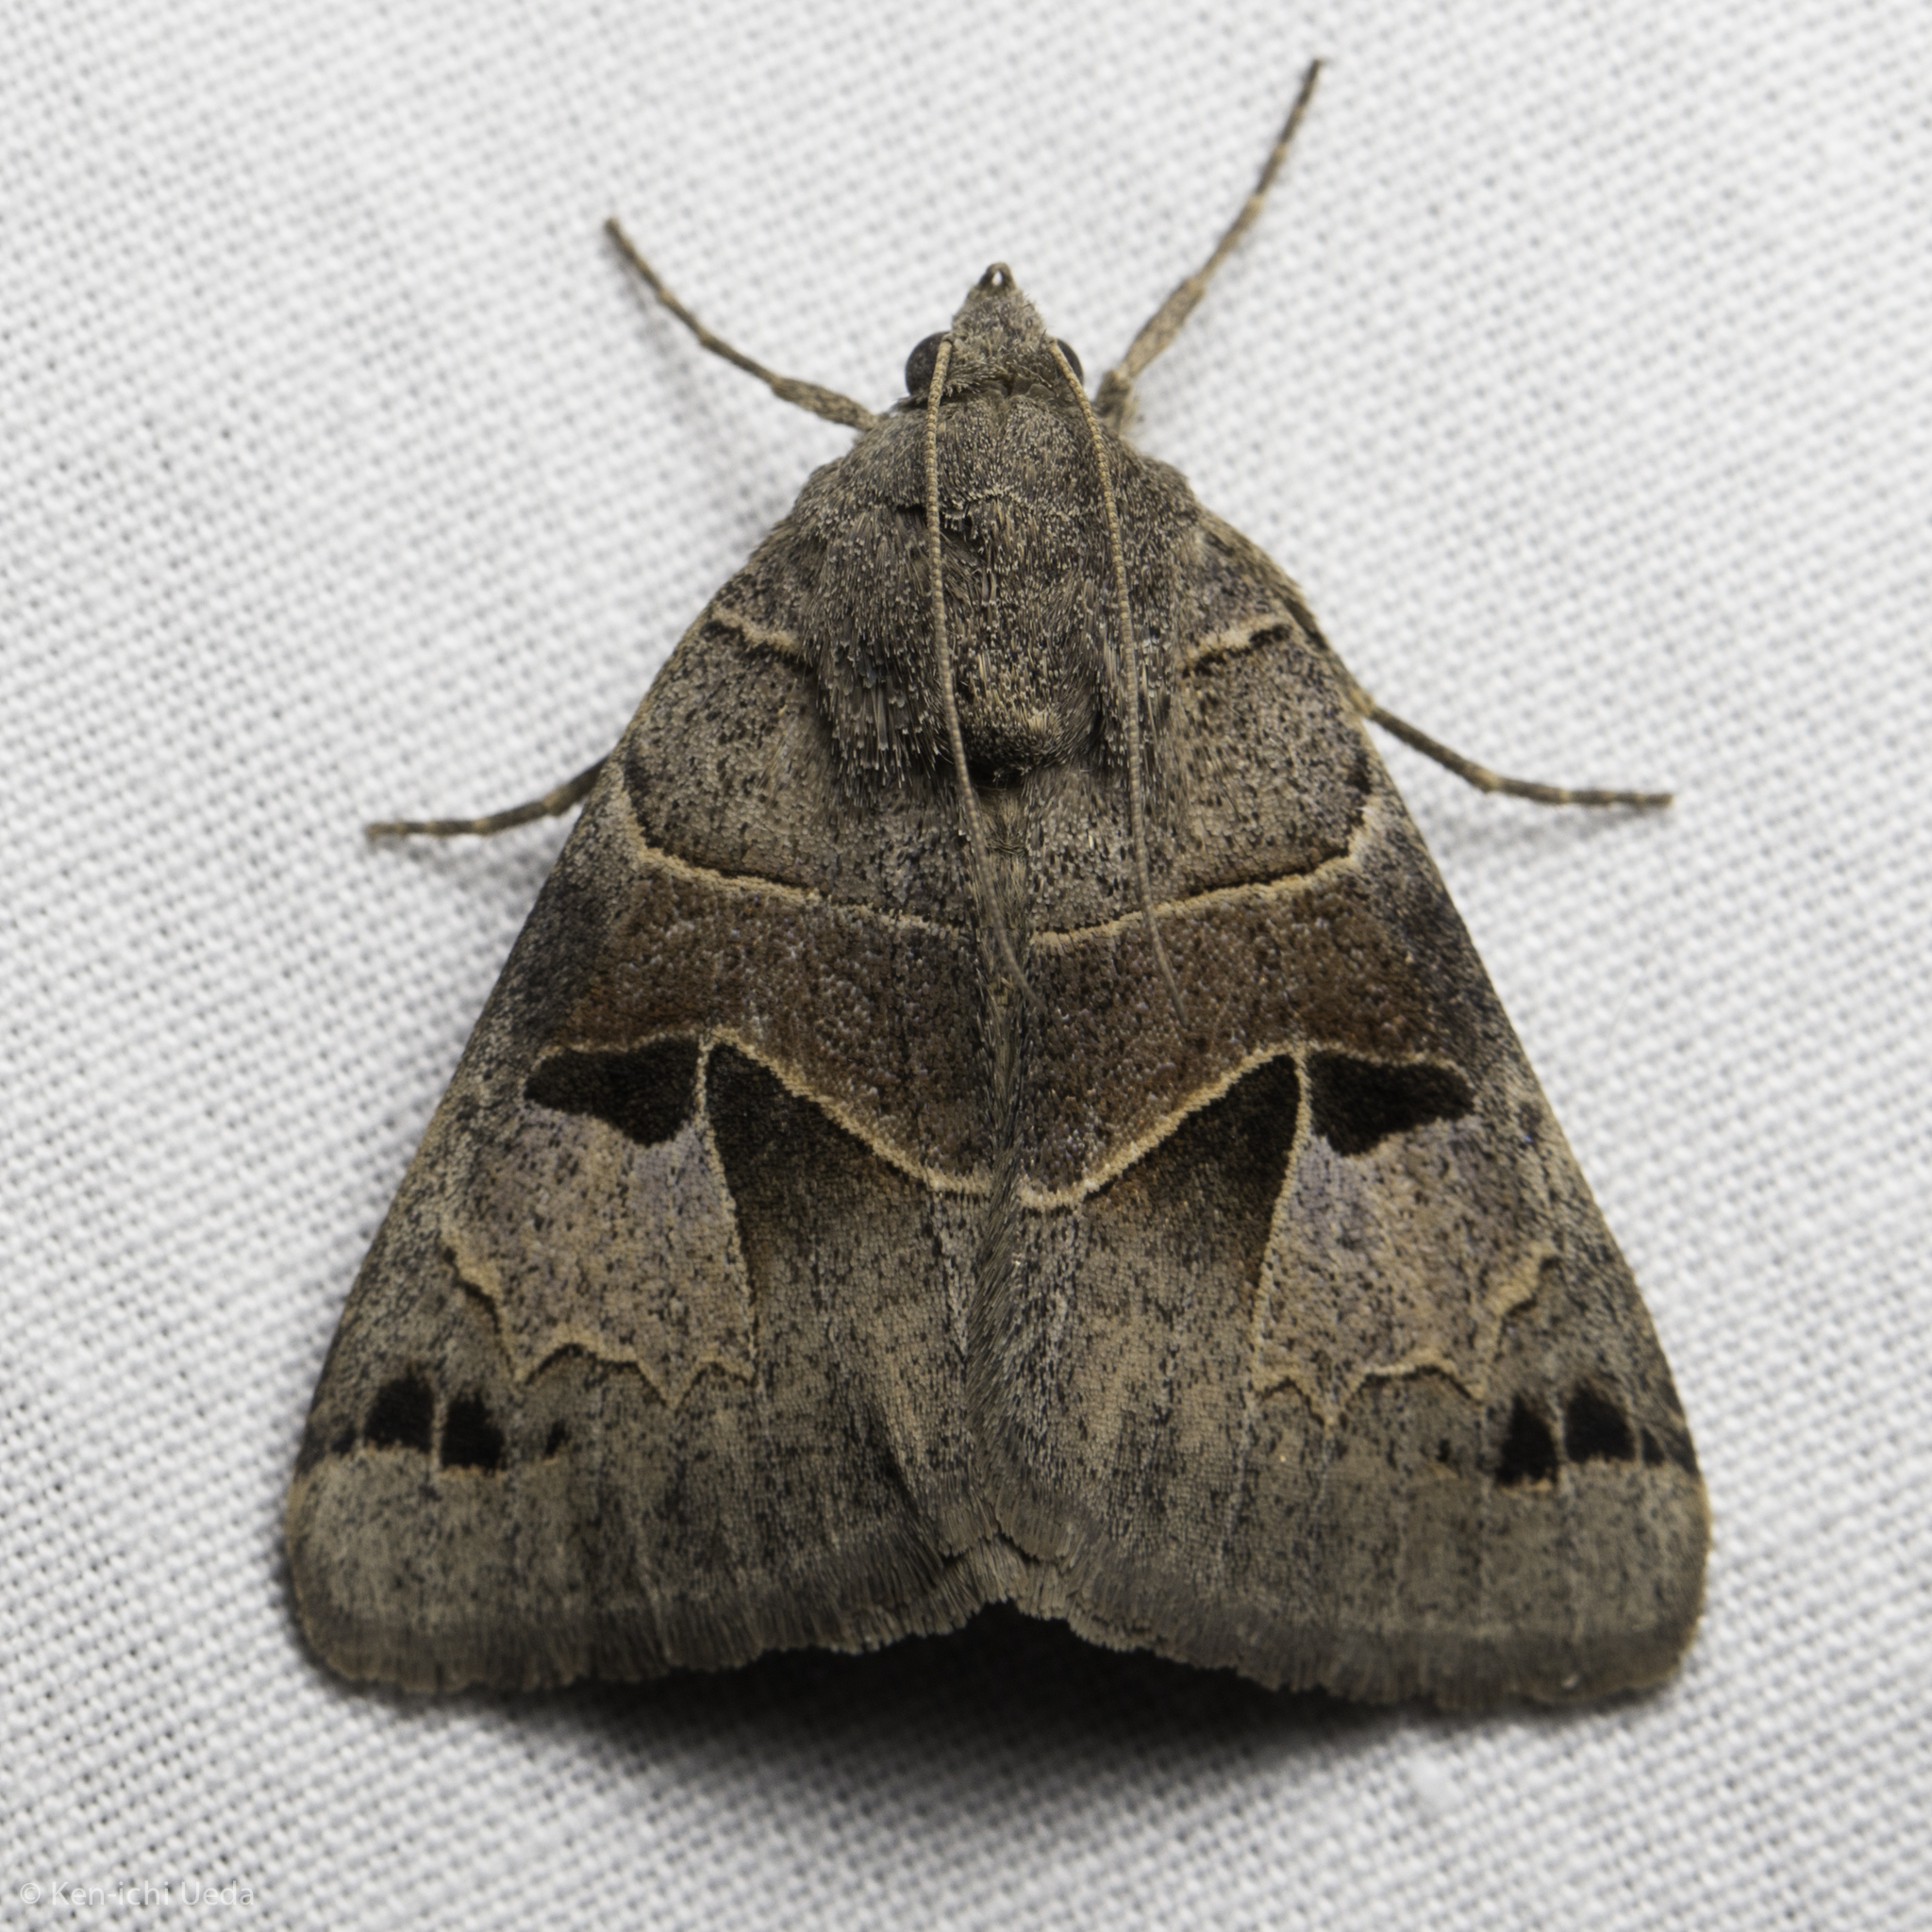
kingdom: Animalia
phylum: Arthropoda
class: Insecta
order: Lepidoptera
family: Erebidae
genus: Drasteria
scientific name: Drasteria edwardsii
